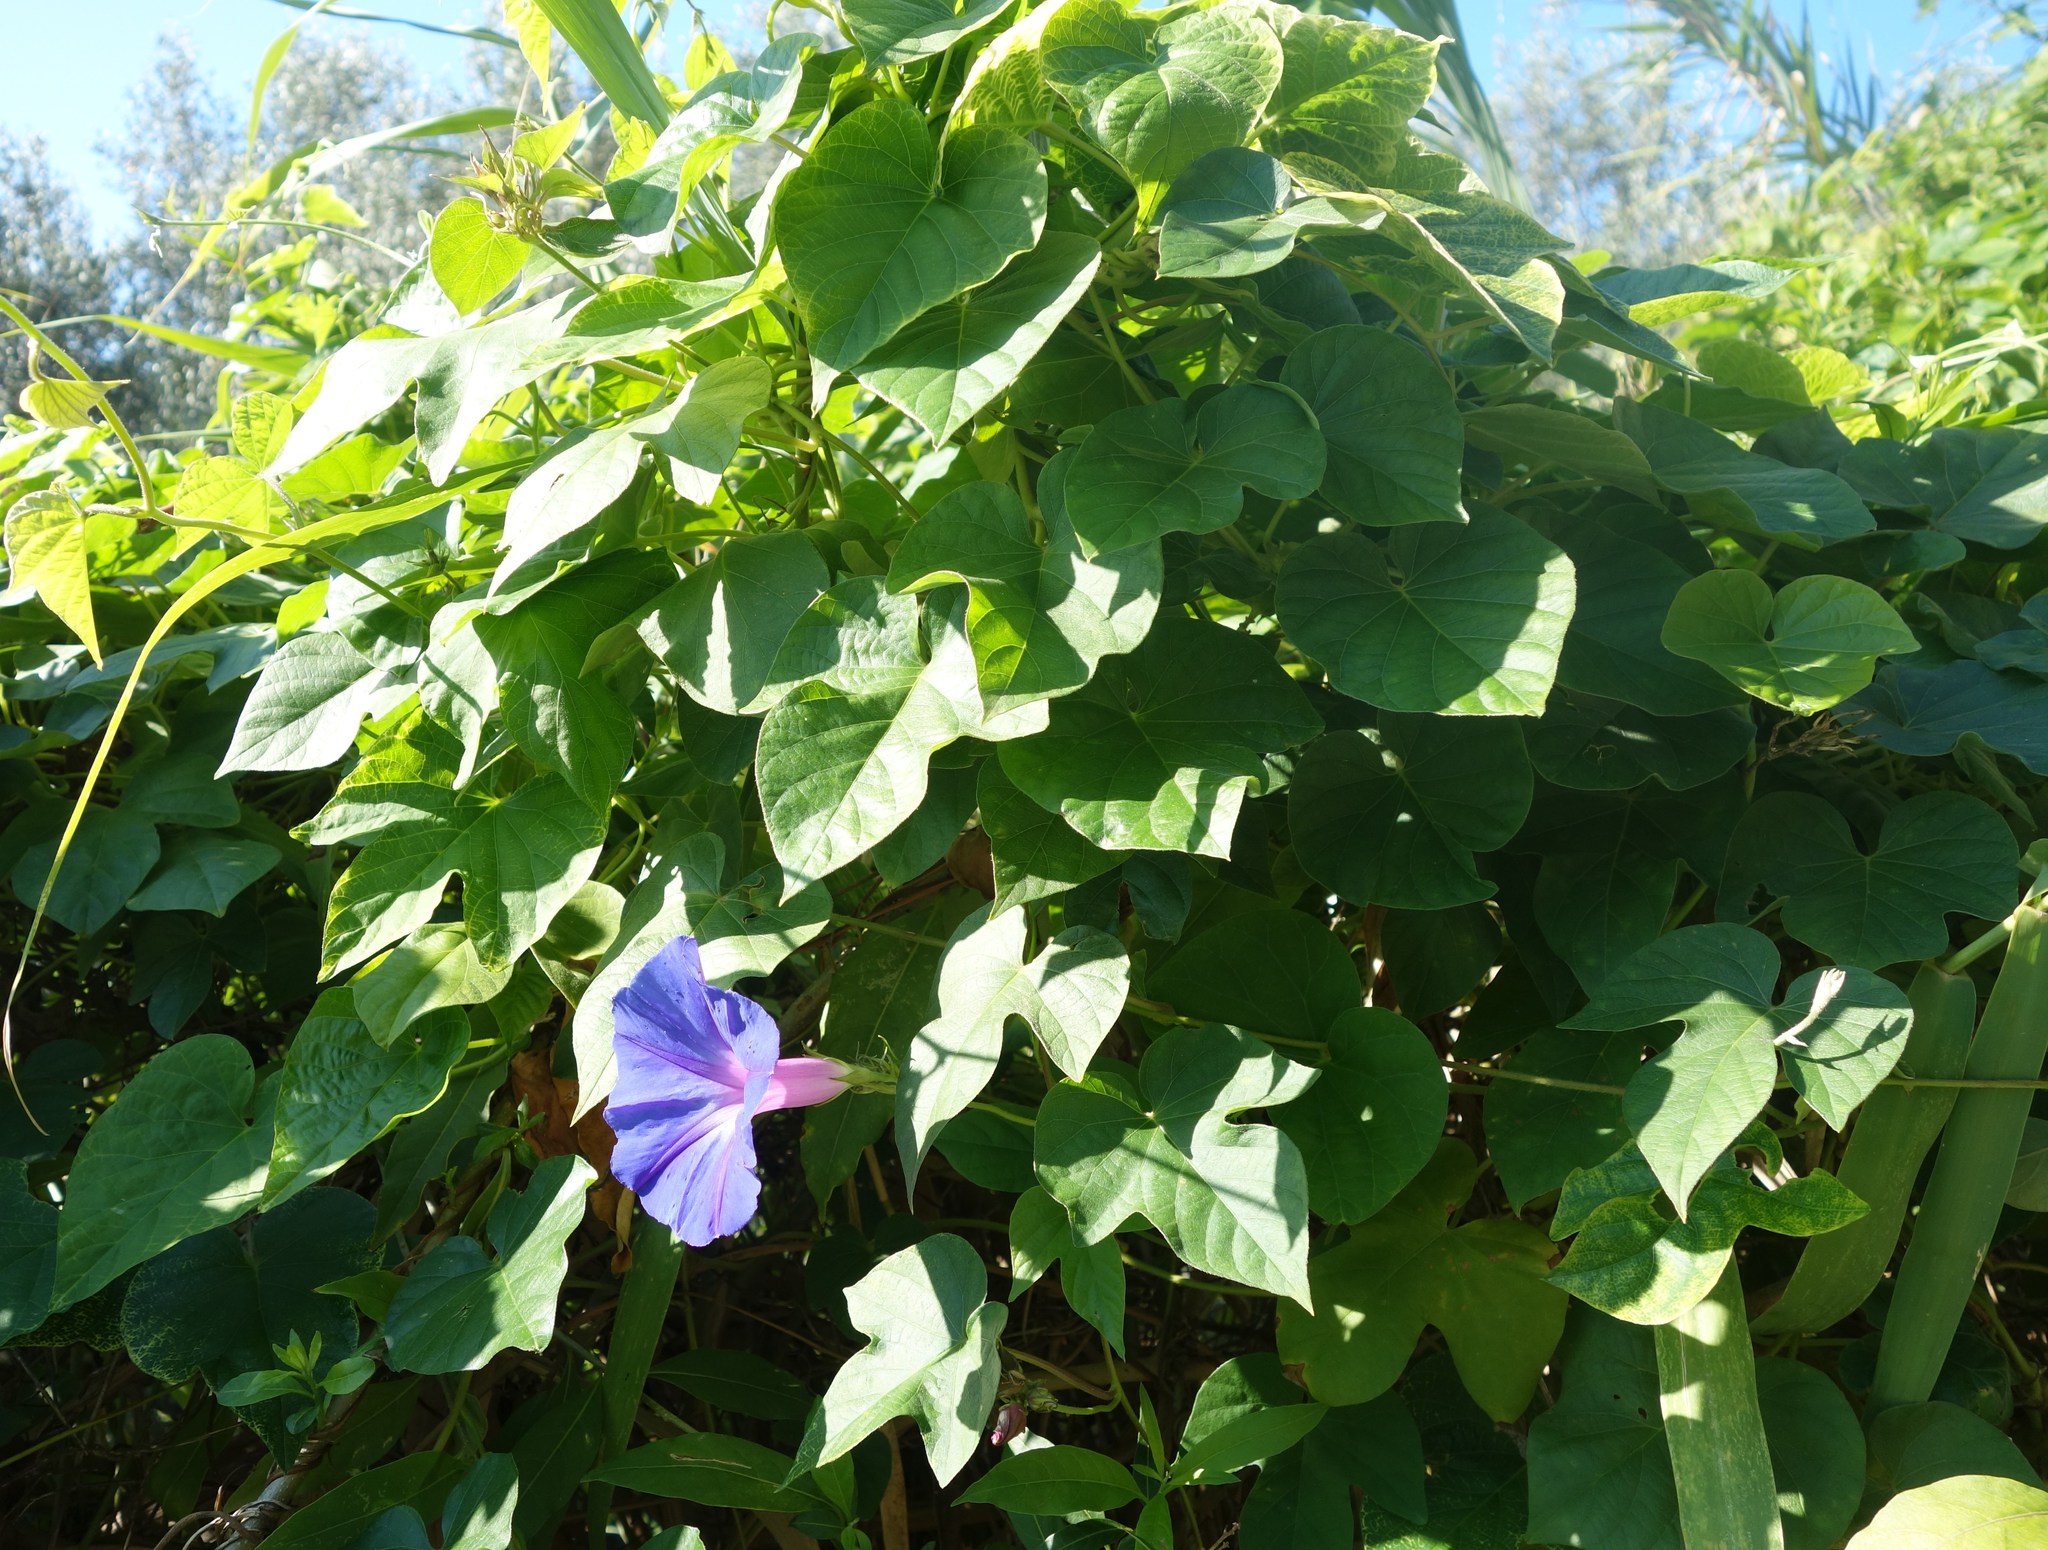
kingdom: Plantae
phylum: Tracheophyta
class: Magnoliopsida
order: Solanales
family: Convolvulaceae
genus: Ipomoea
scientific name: Ipomoea indica
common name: Blue dawnflower
